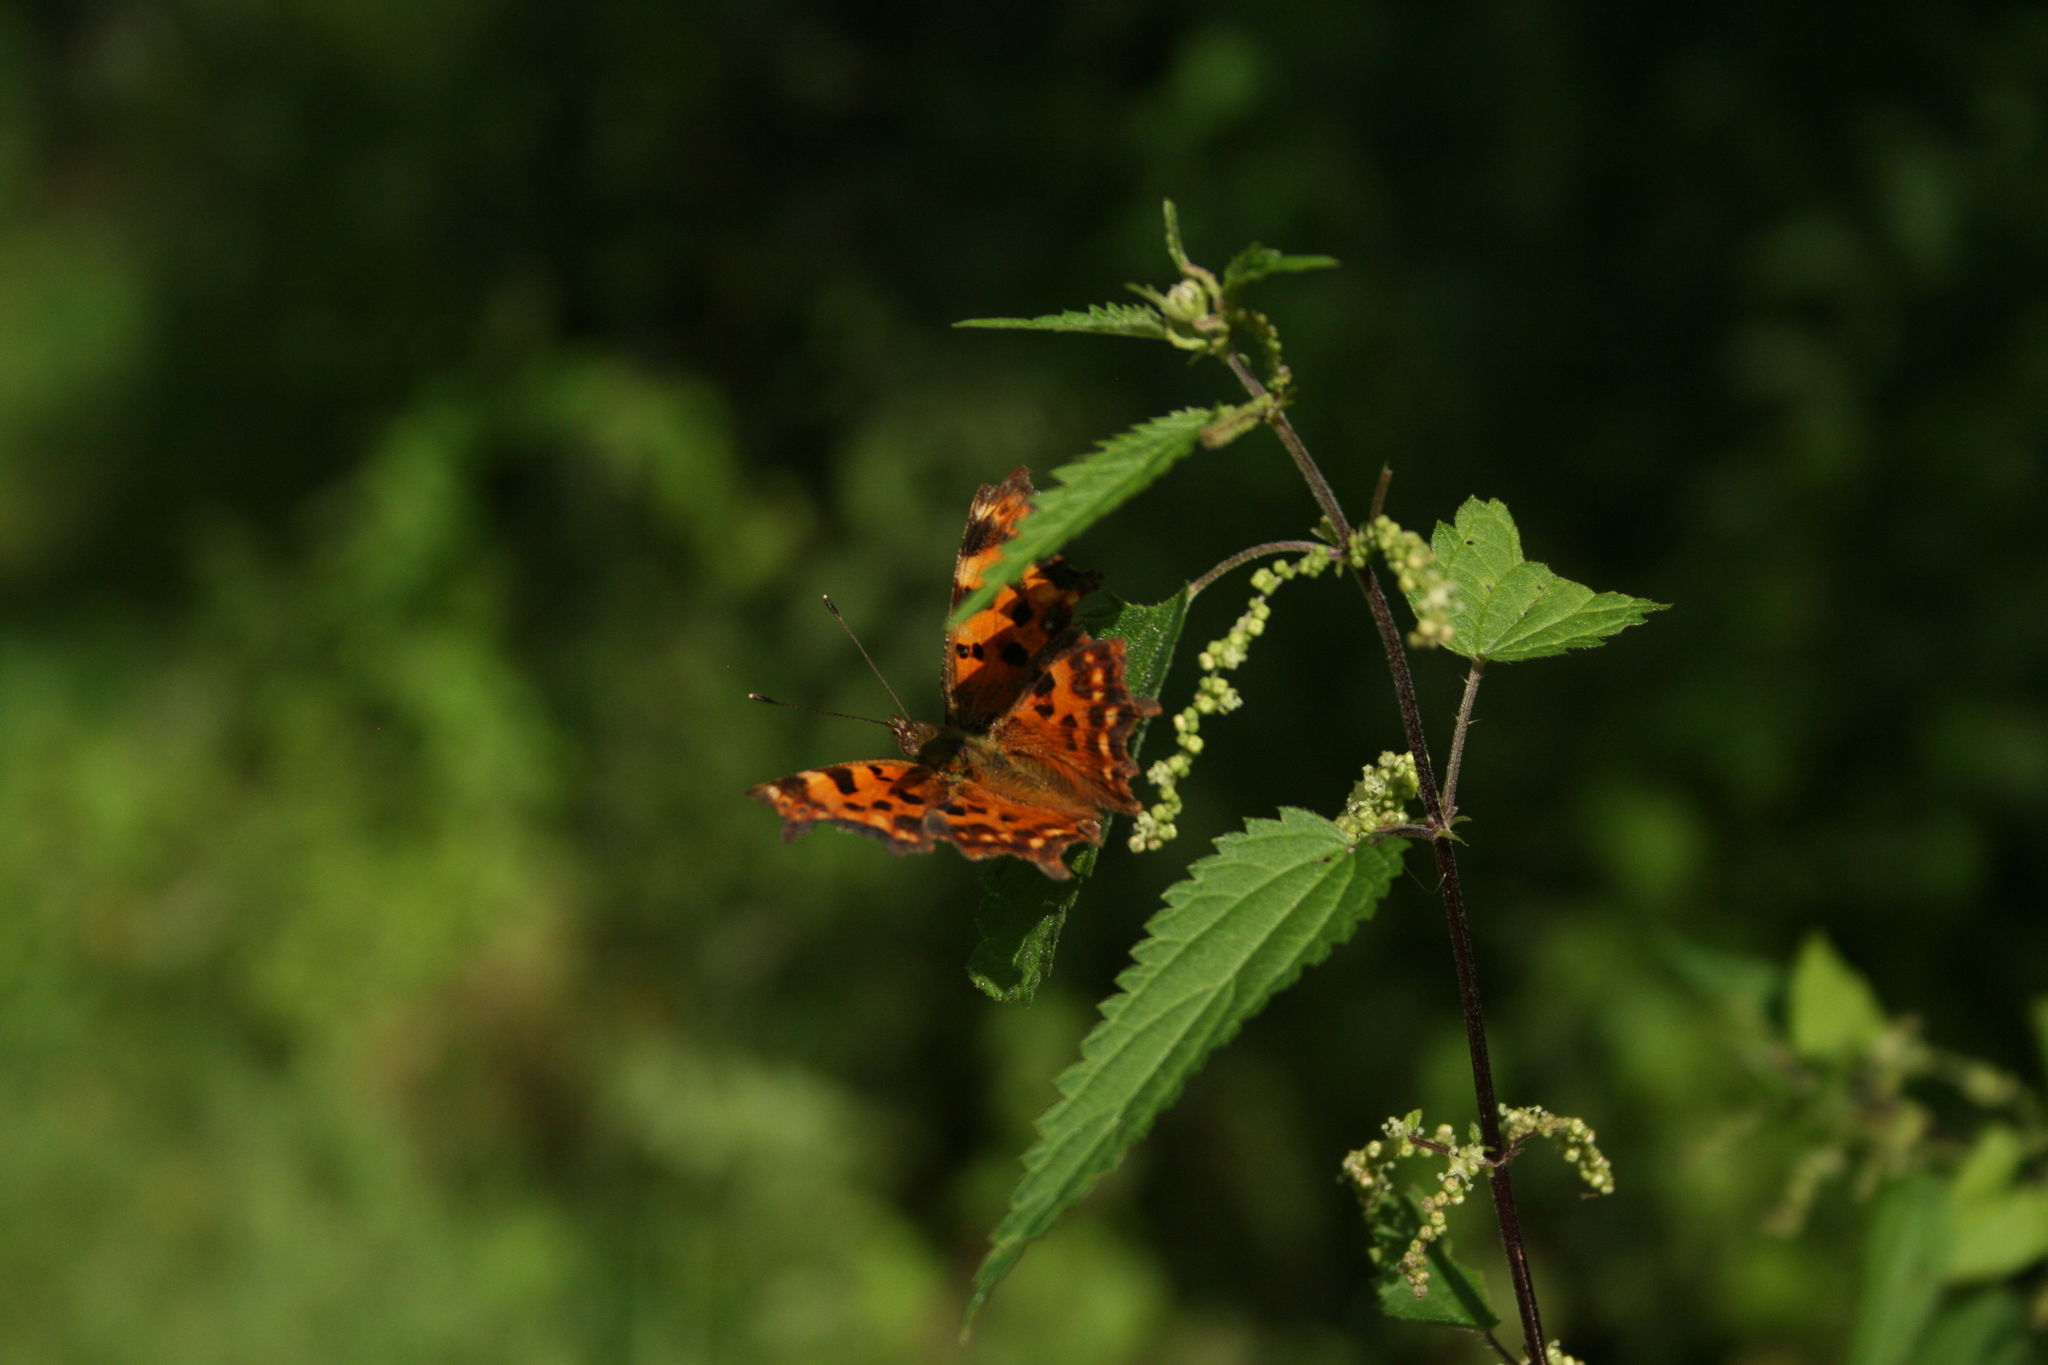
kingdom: Animalia
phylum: Arthropoda
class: Insecta
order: Lepidoptera
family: Nymphalidae
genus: Polygonia
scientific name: Polygonia c-album
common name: Comma
